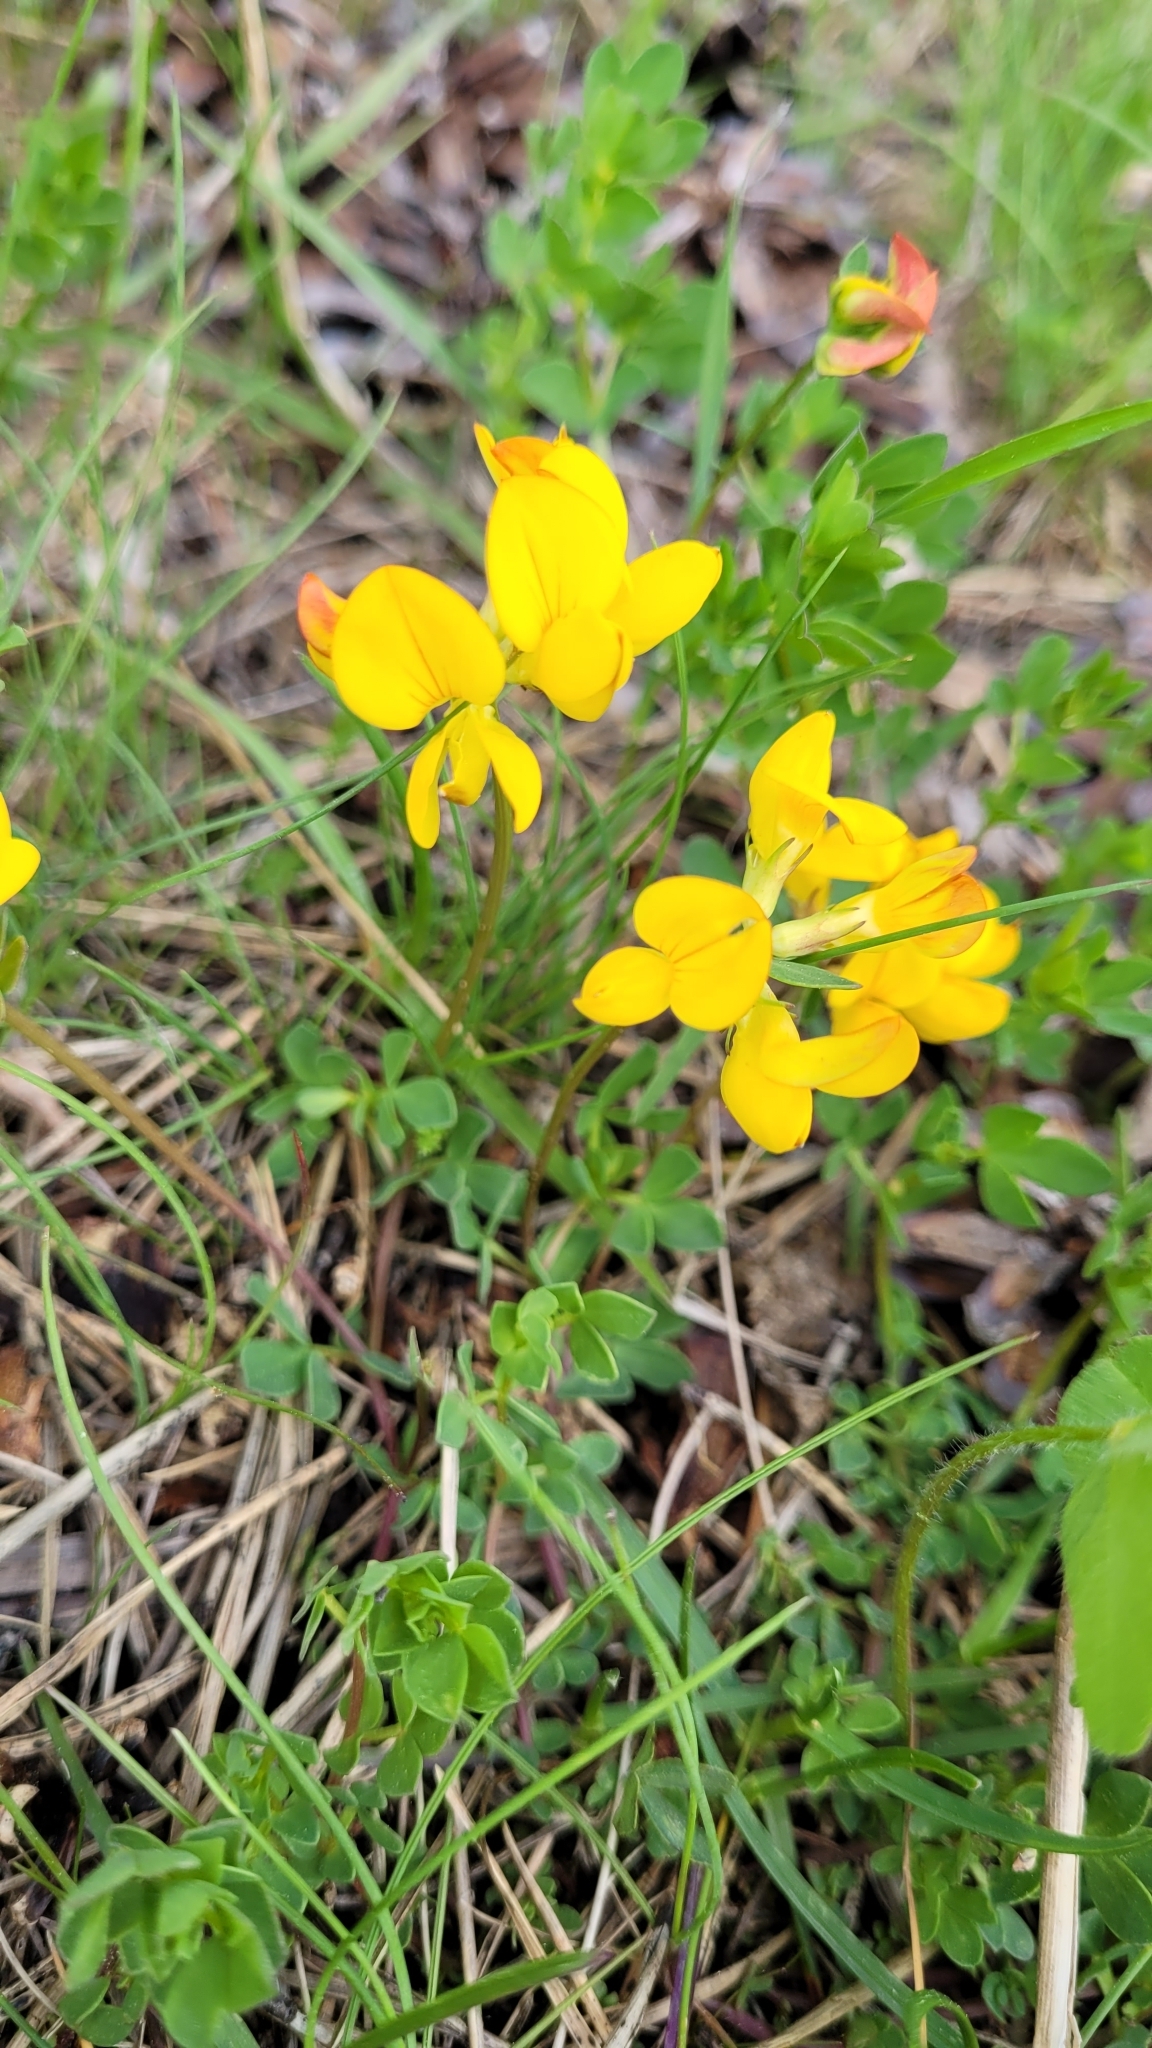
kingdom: Plantae
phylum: Tracheophyta
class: Magnoliopsida
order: Fabales
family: Fabaceae
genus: Lotus
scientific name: Lotus corniculatus
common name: Common bird's-foot-trefoil
